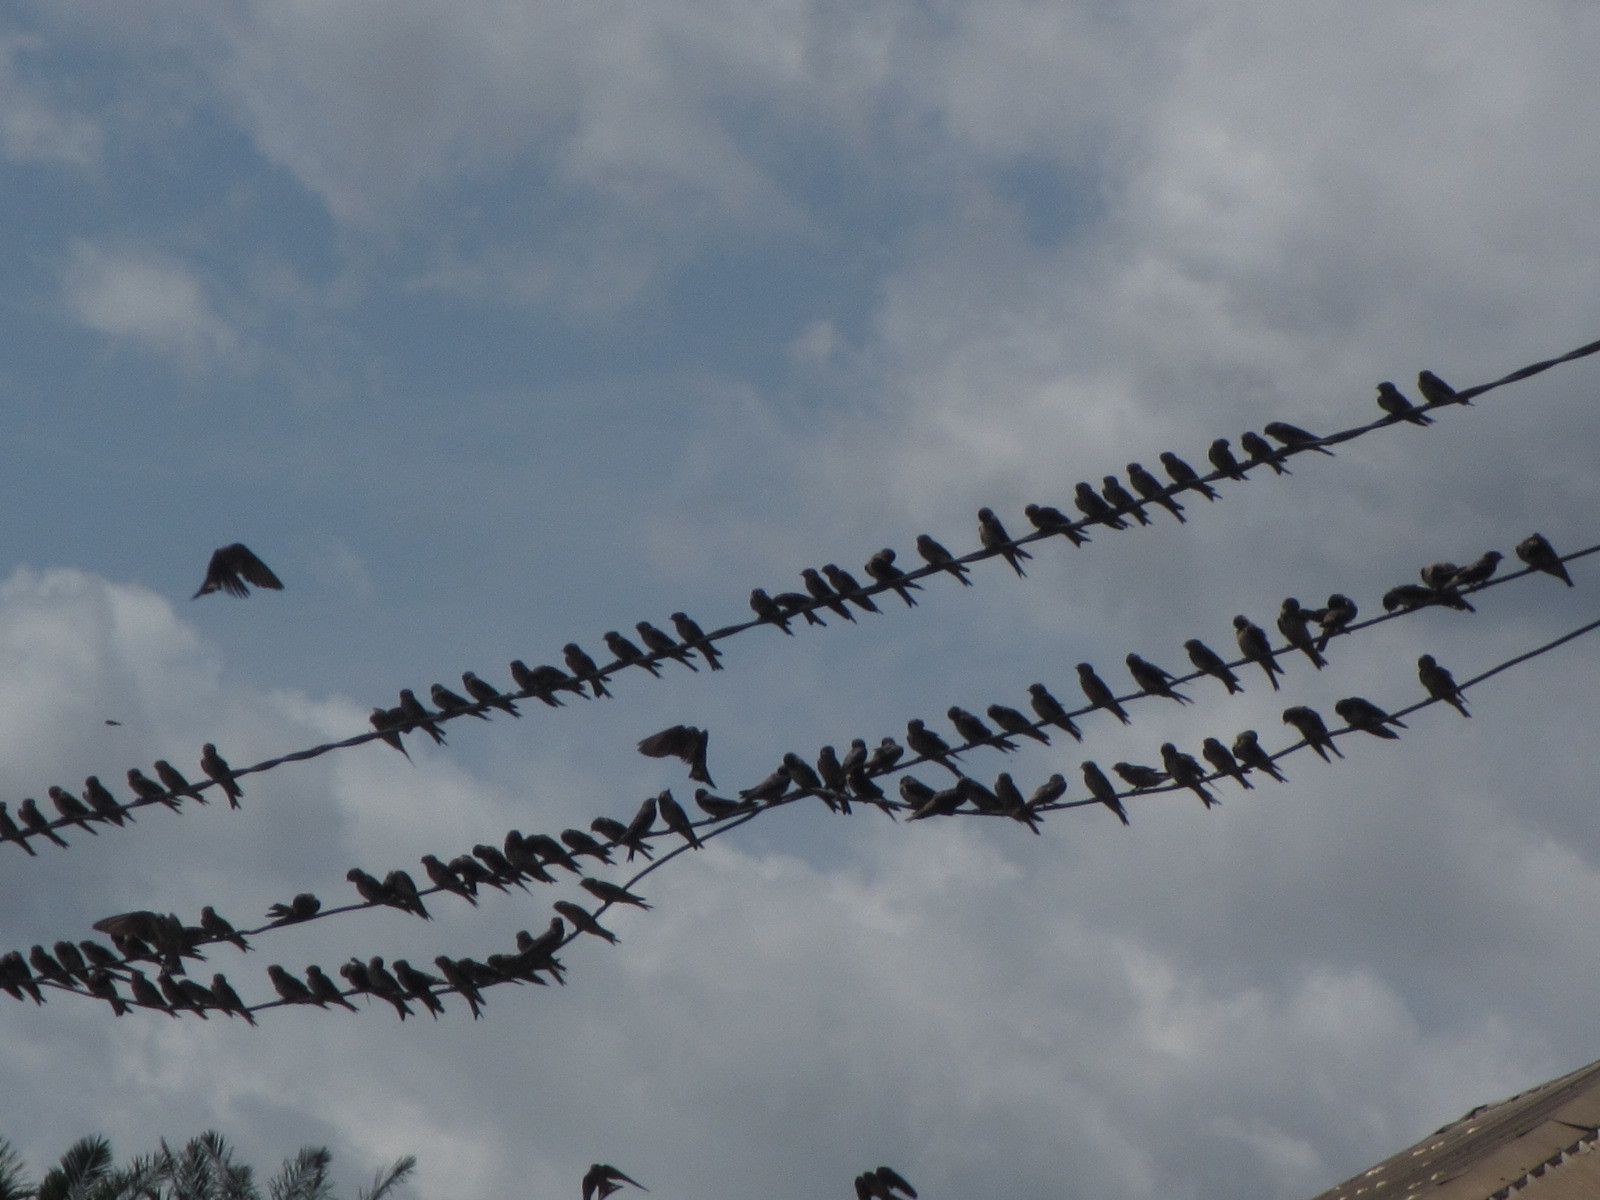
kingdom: Animalia
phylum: Chordata
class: Aves
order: Passeriformes
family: Hirundinidae
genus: Petrochelidon
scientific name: Petrochelidon preussi
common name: Preuss's swallow
